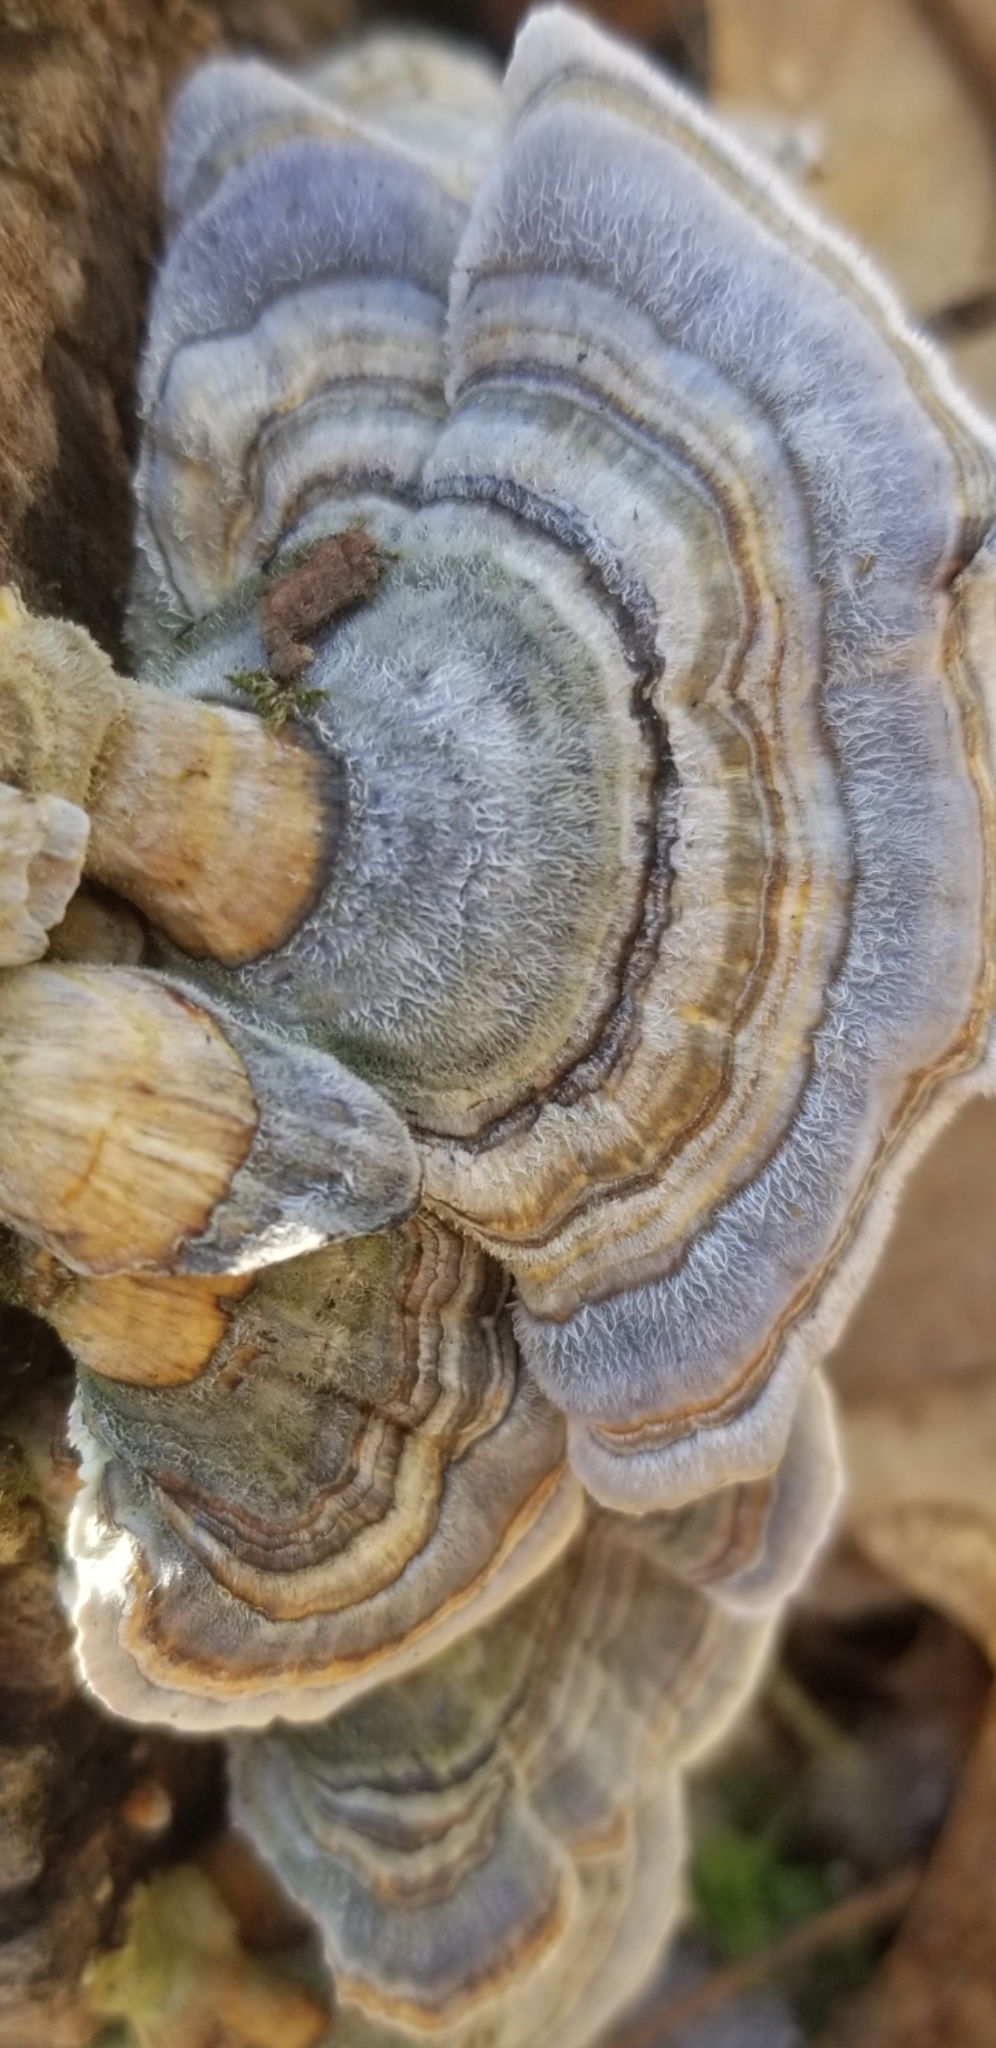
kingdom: Fungi
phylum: Basidiomycota
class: Agaricomycetes
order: Polyporales
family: Polyporaceae
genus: Trametes
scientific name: Trametes versicolor
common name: Turkeytail
